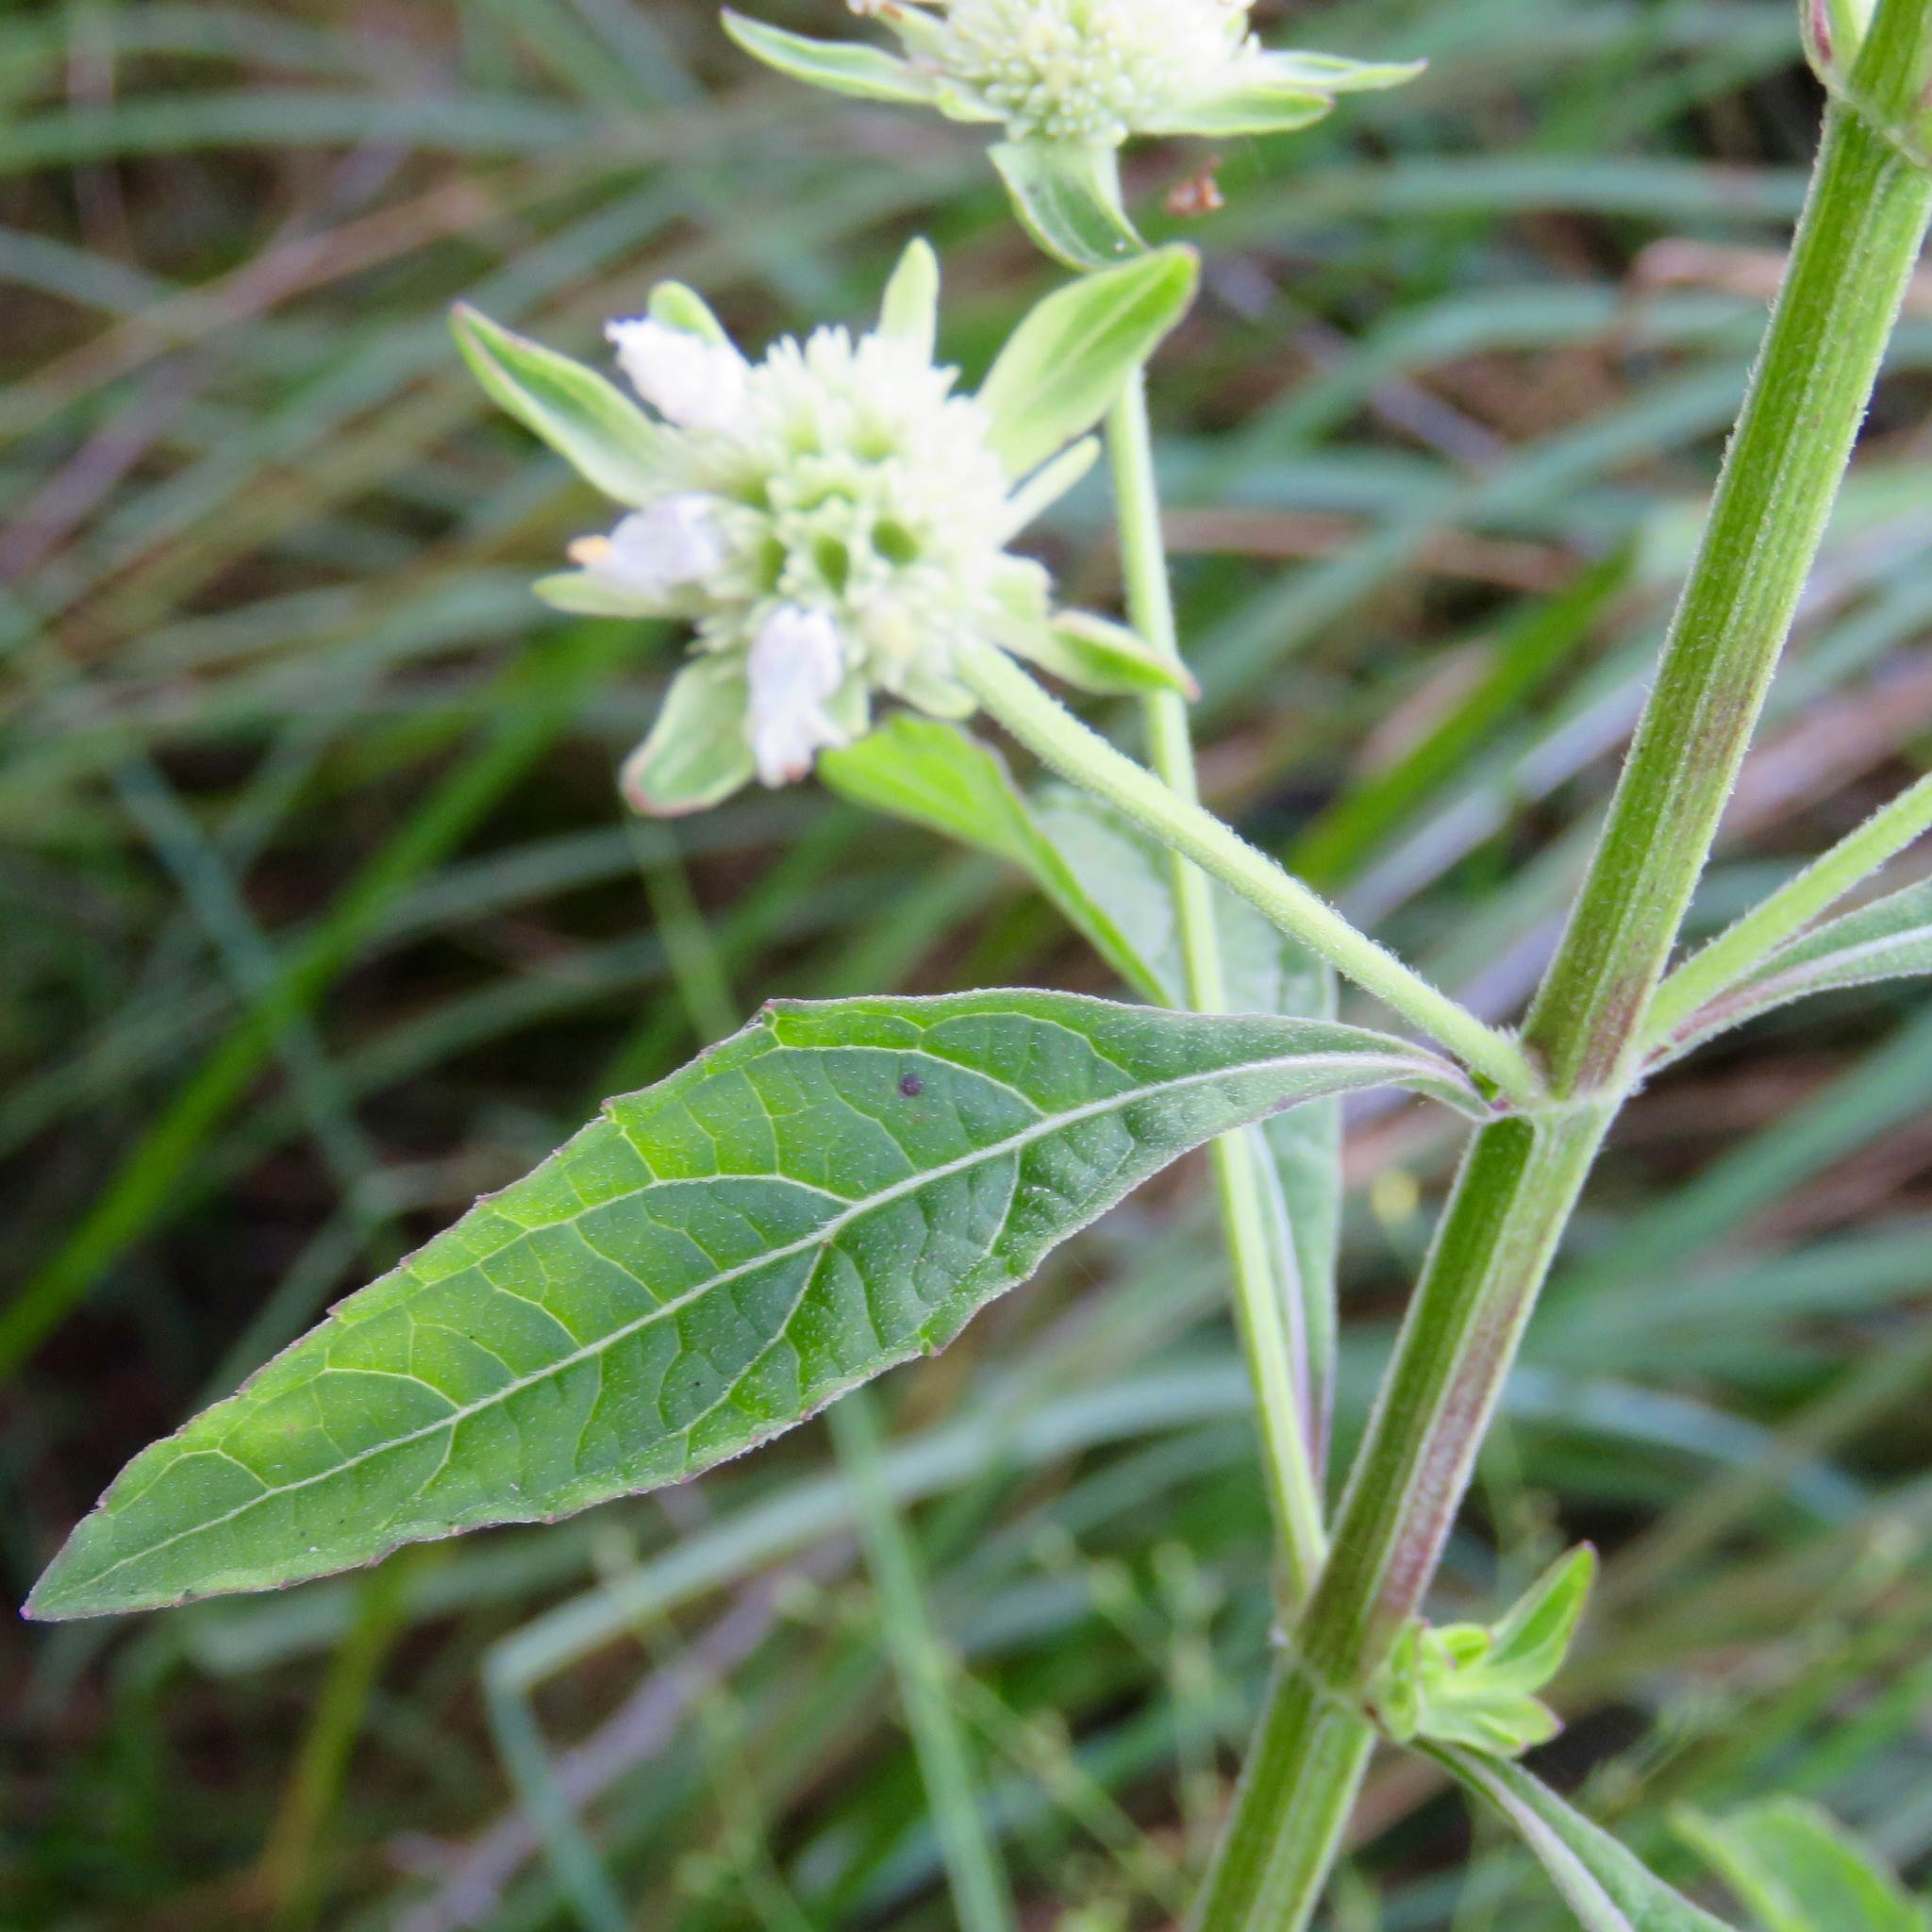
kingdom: Plantae
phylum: Tracheophyta
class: Magnoliopsida
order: Lamiales
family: Lamiaceae
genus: Hyptis
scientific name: Hyptis alata
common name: Cluster bush-mint
